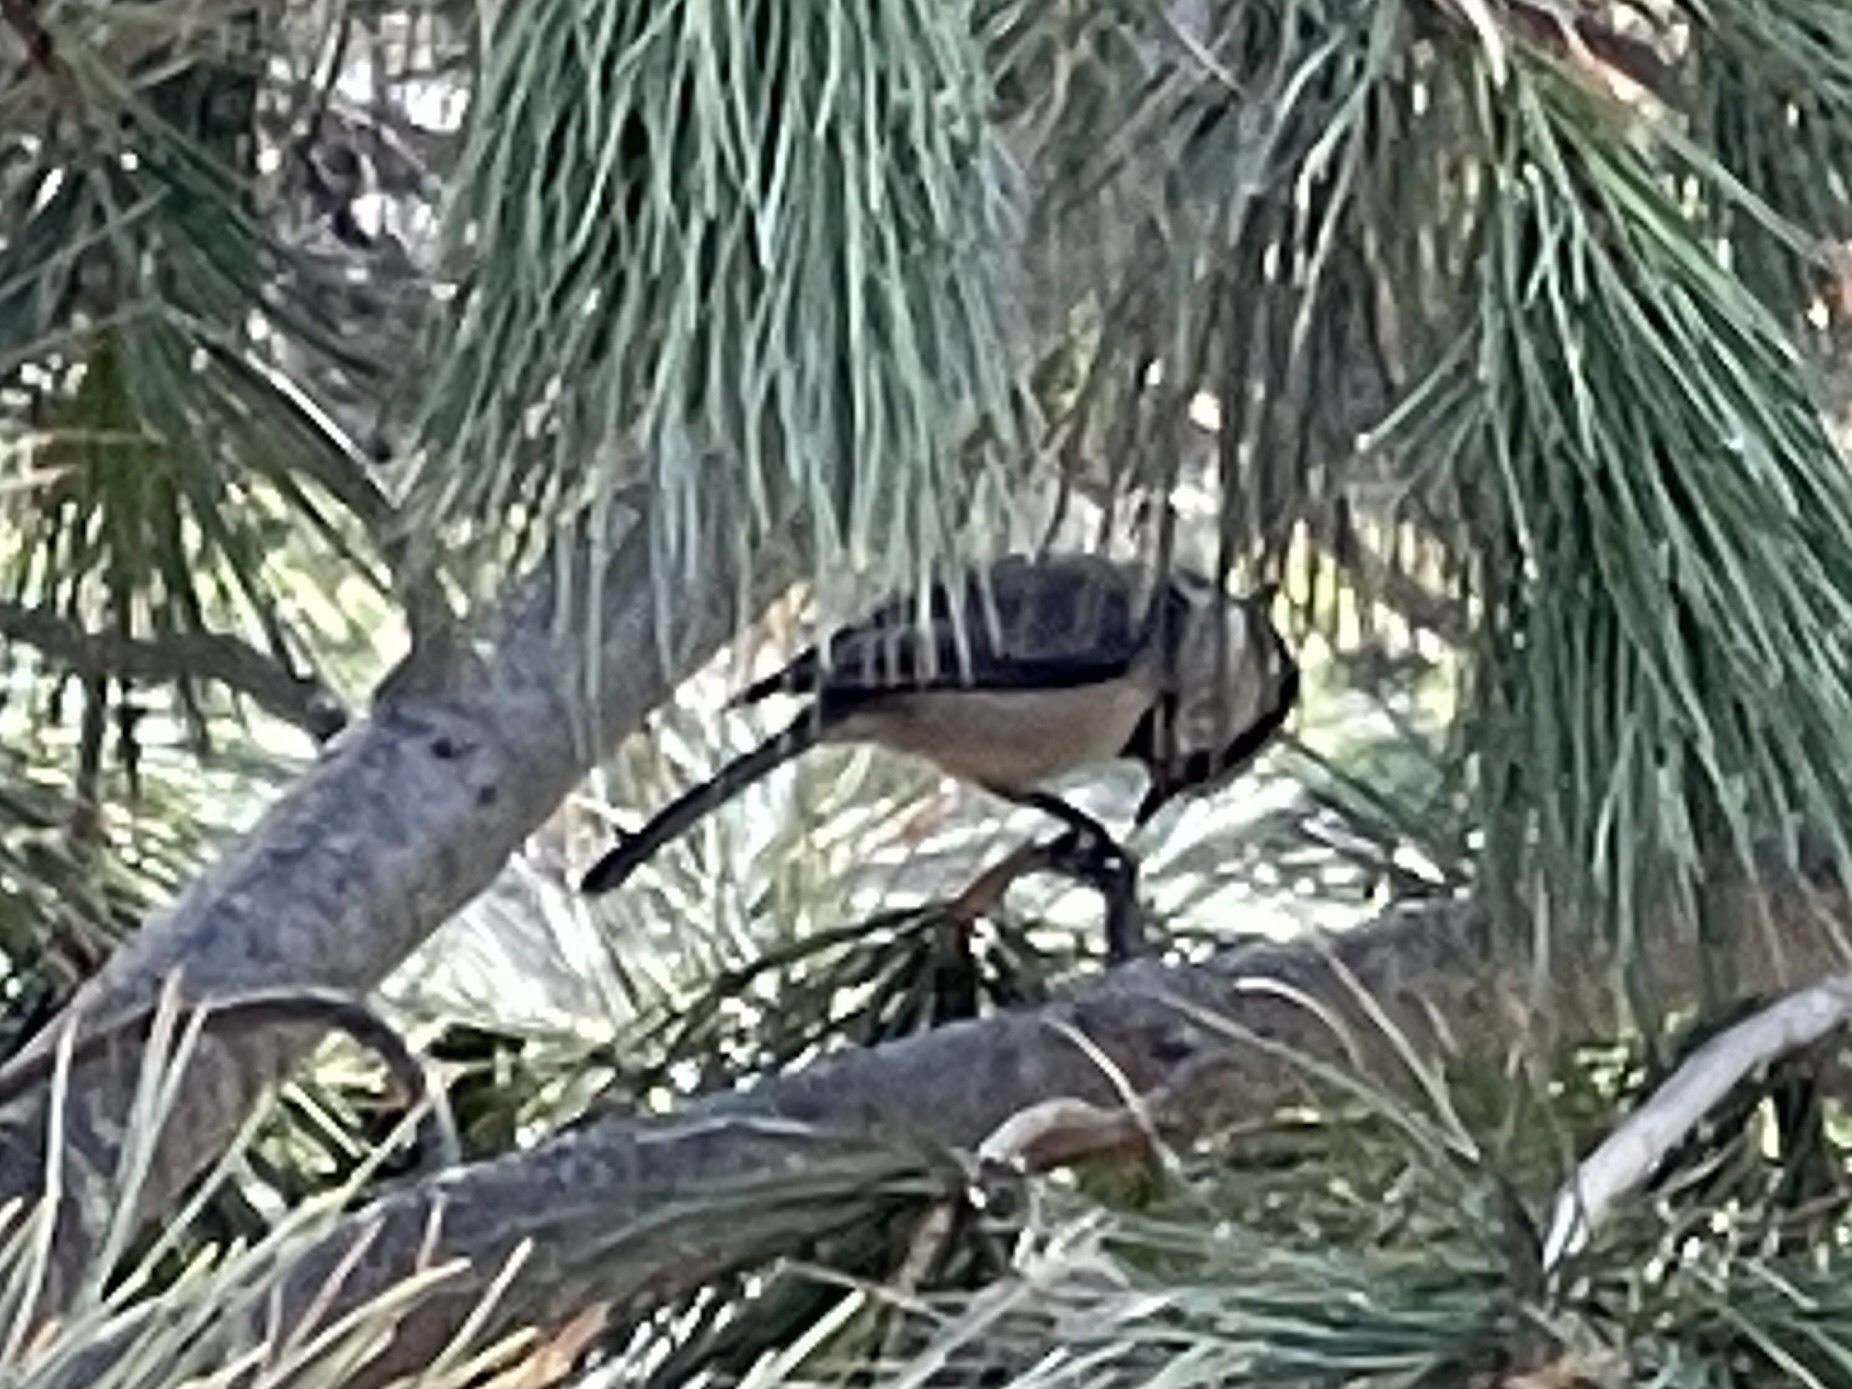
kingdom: Animalia
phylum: Chordata
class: Aves
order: Passeriformes
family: Paridae
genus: Poecile
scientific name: Poecile gambeli
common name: Mountain chickadee
